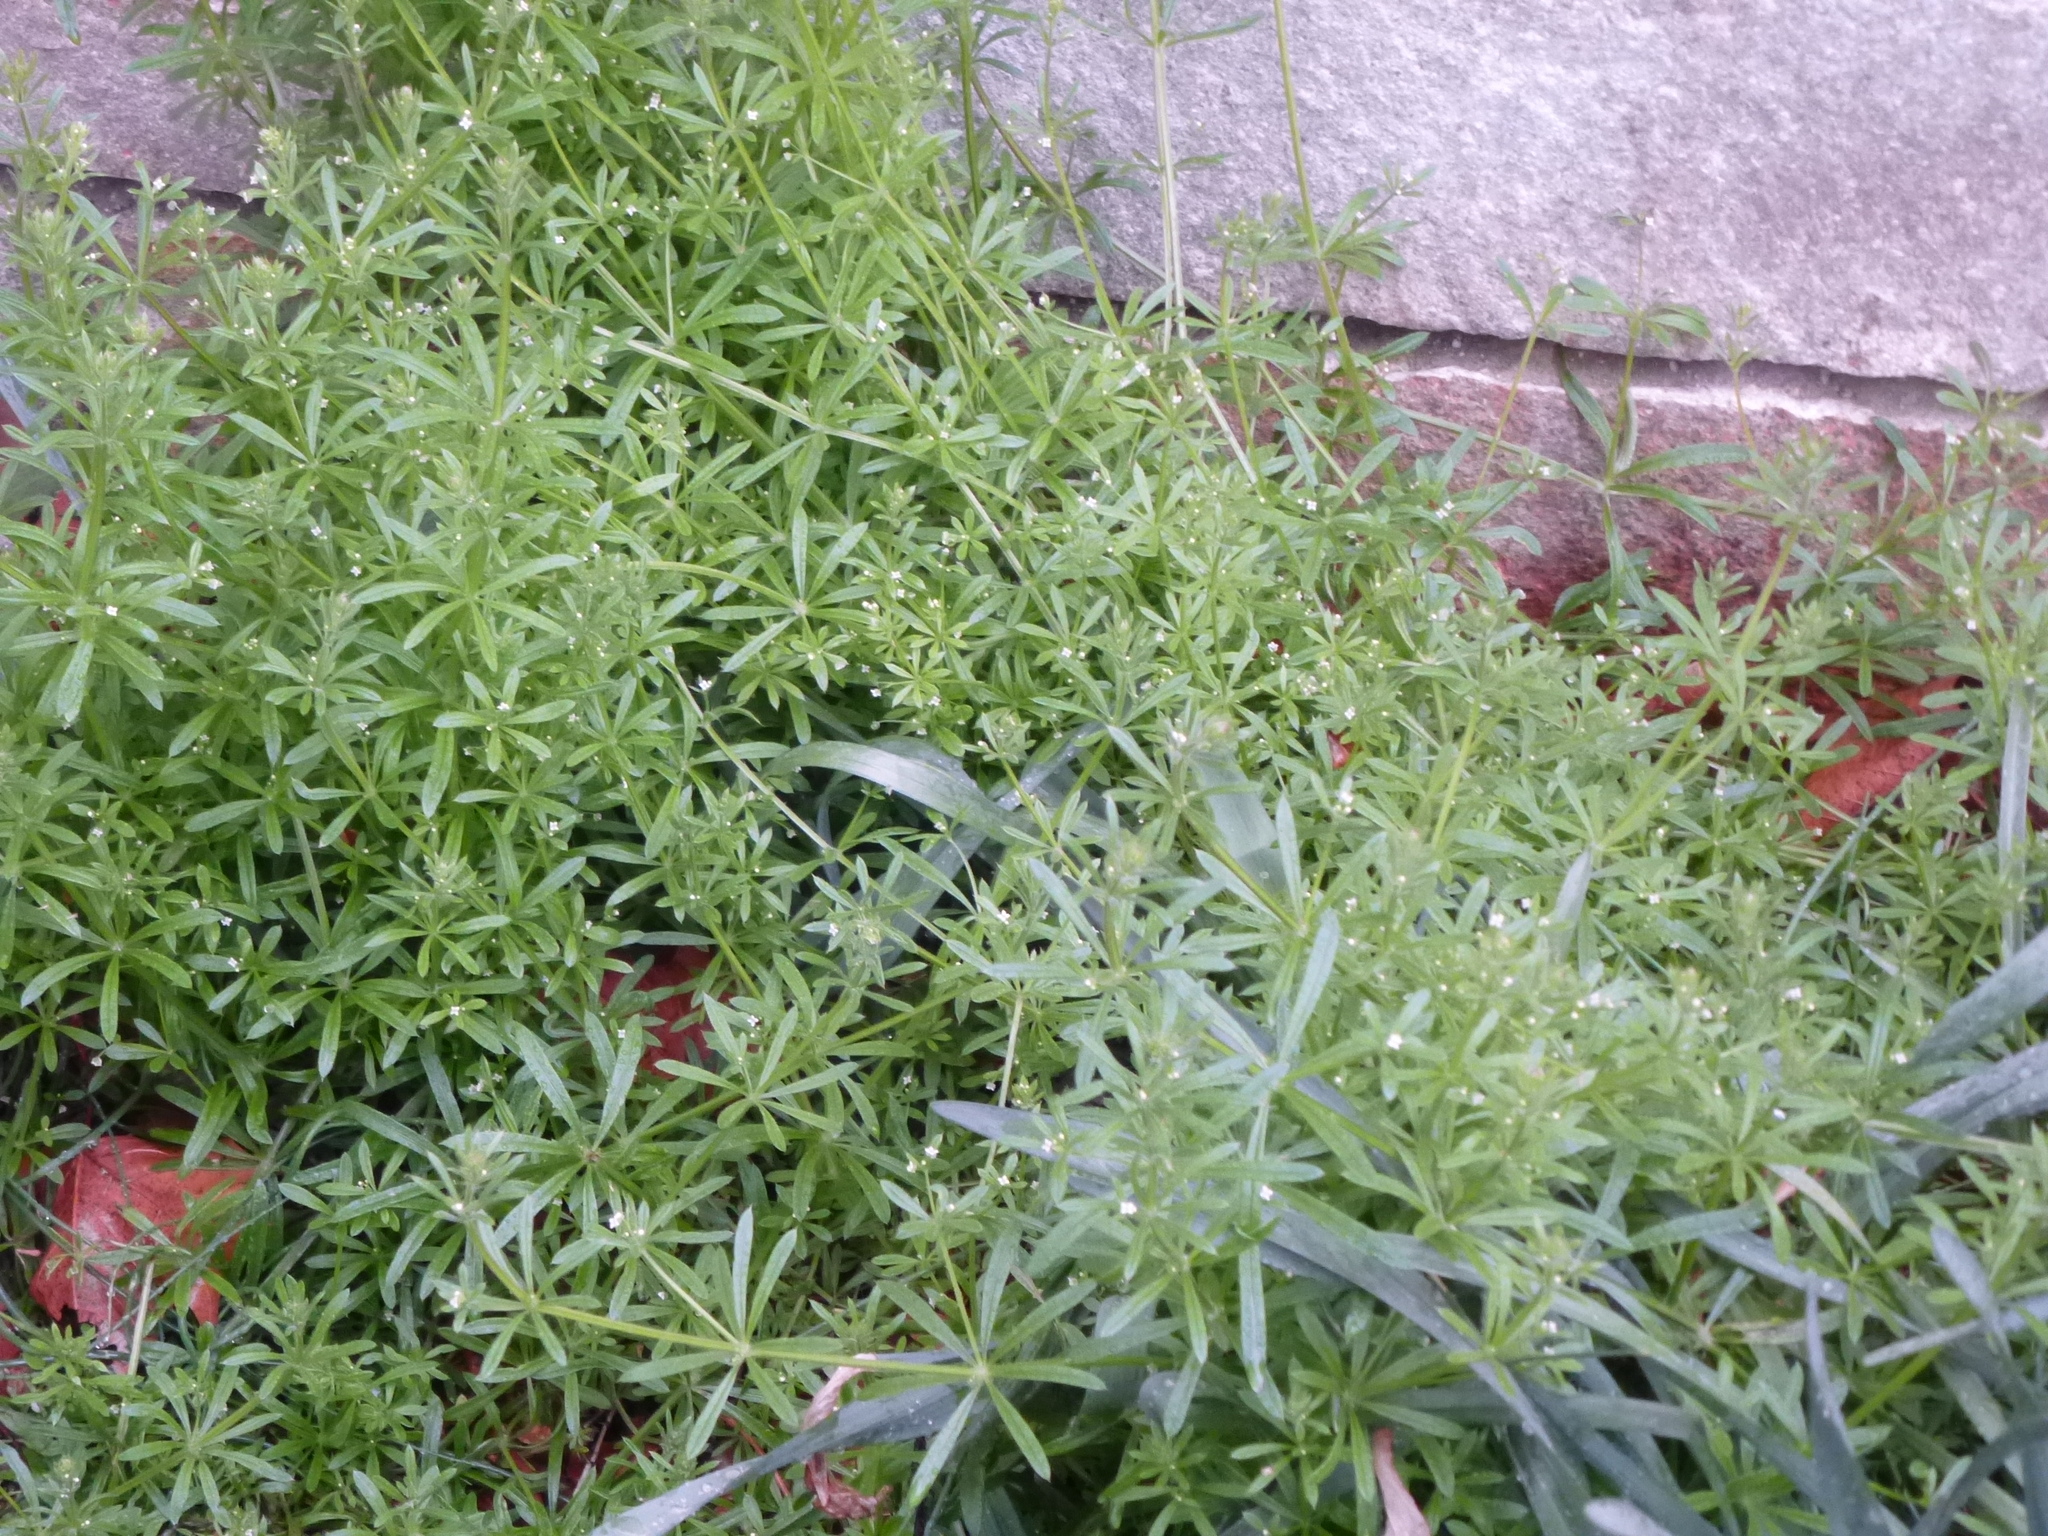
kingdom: Plantae
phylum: Tracheophyta
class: Magnoliopsida
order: Gentianales
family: Rubiaceae
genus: Galium
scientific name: Galium aparine
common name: Cleavers
